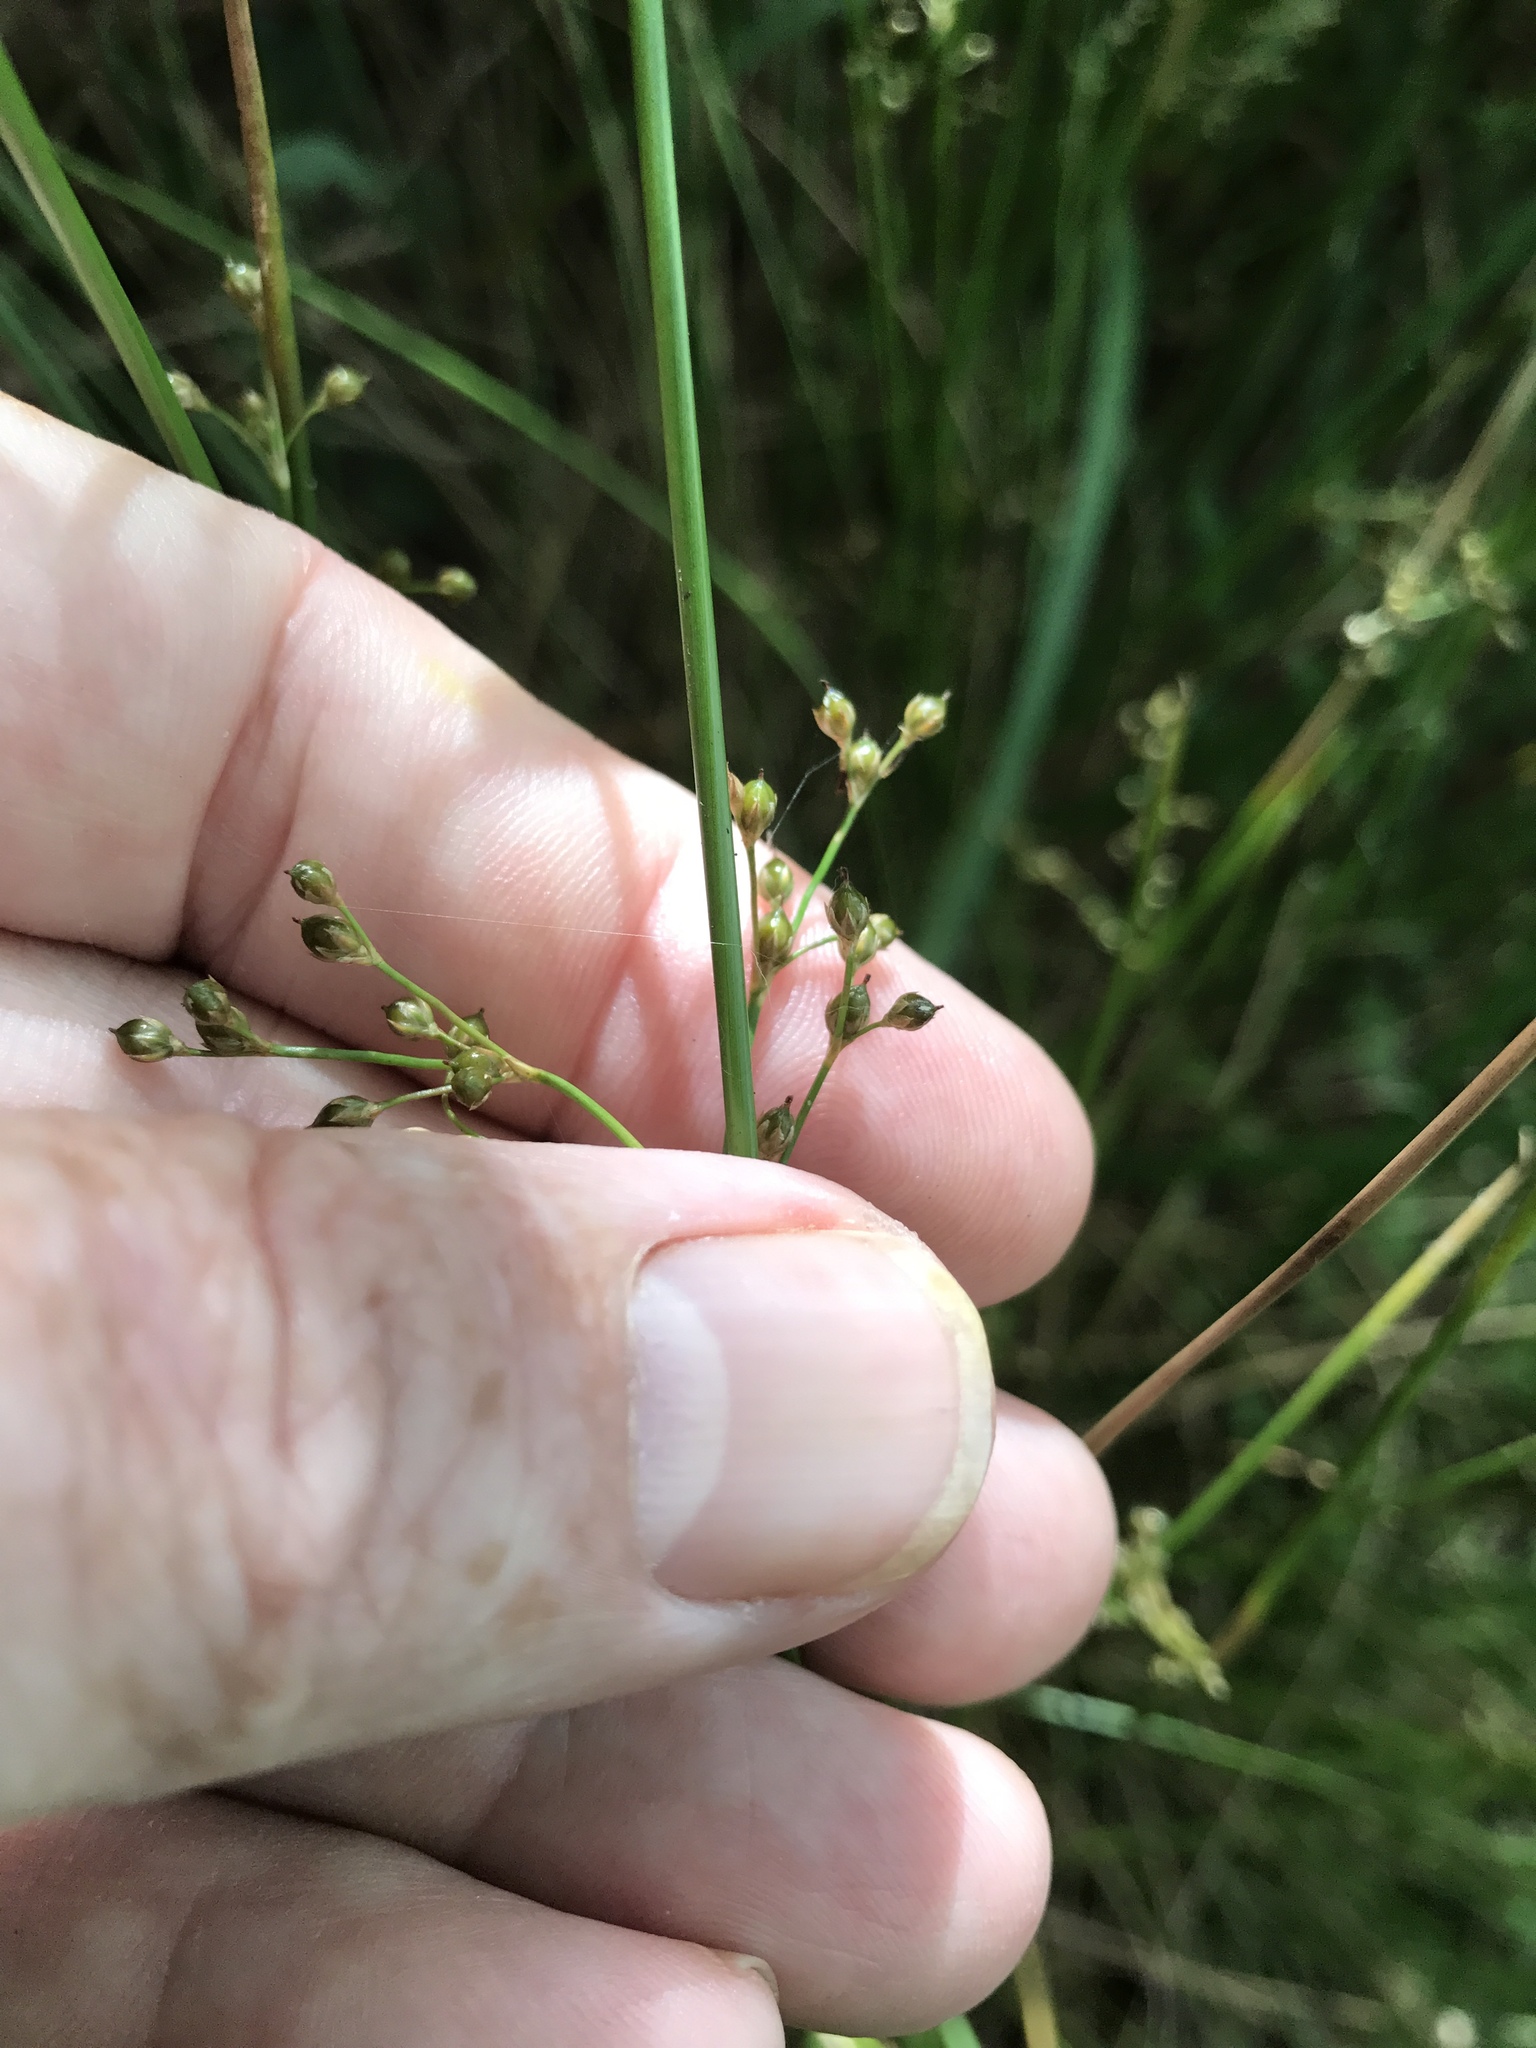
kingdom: Plantae
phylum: Tracheophyta
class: Liliopsida
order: Poales
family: Juncaceae
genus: Juncus
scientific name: Juncus gymnocarpus
